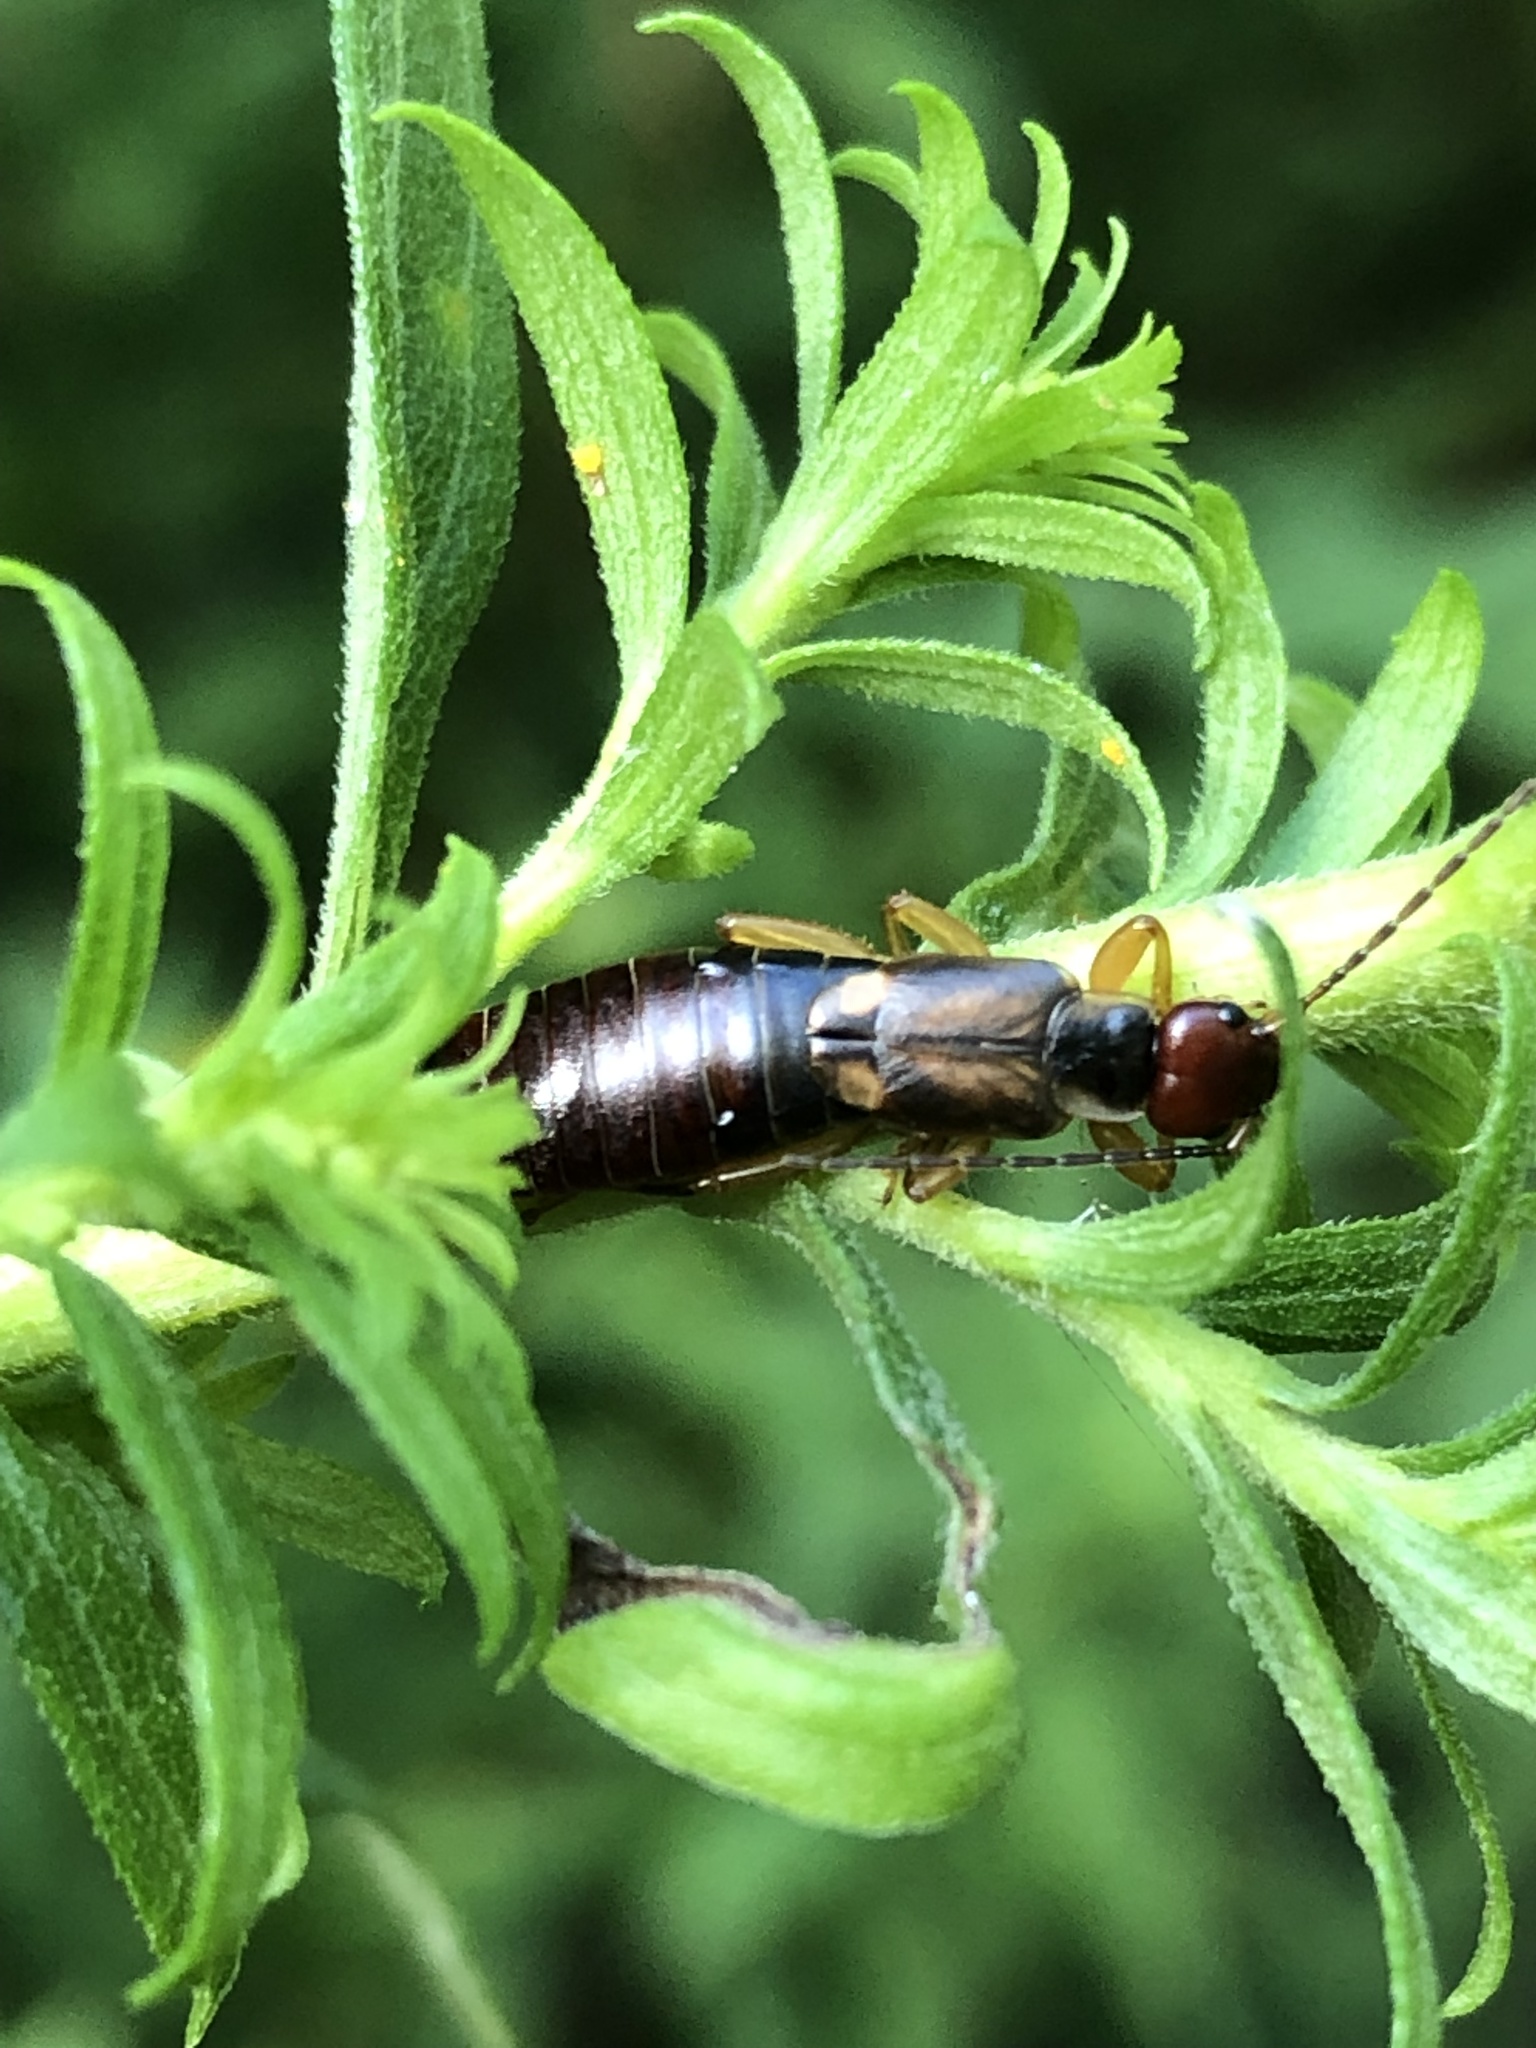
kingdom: Animalia
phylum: Arthropoda
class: Insecta
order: Dermaptera
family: Forficulidae
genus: Forficula
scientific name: Forficula
